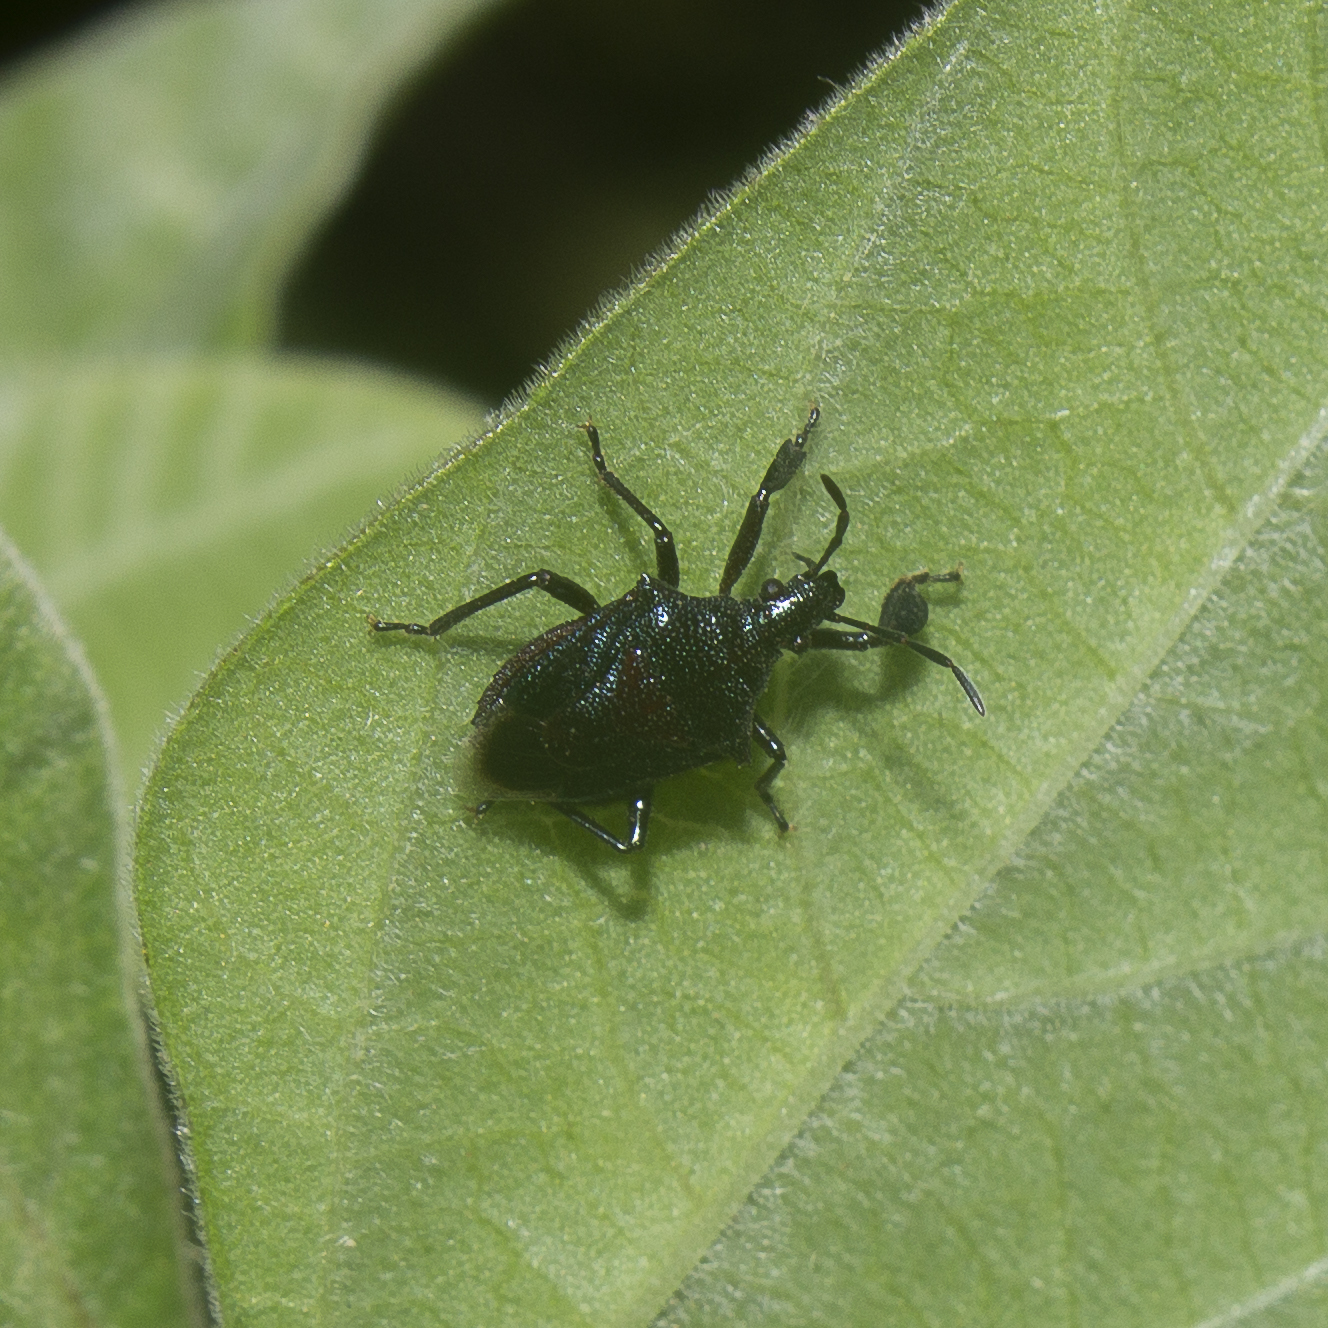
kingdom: Animalia
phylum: Arthropoda
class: Insecta
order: Hemiptera
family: Pentatomidae
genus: Heteroscelis
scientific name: Heteroscelis lepida
